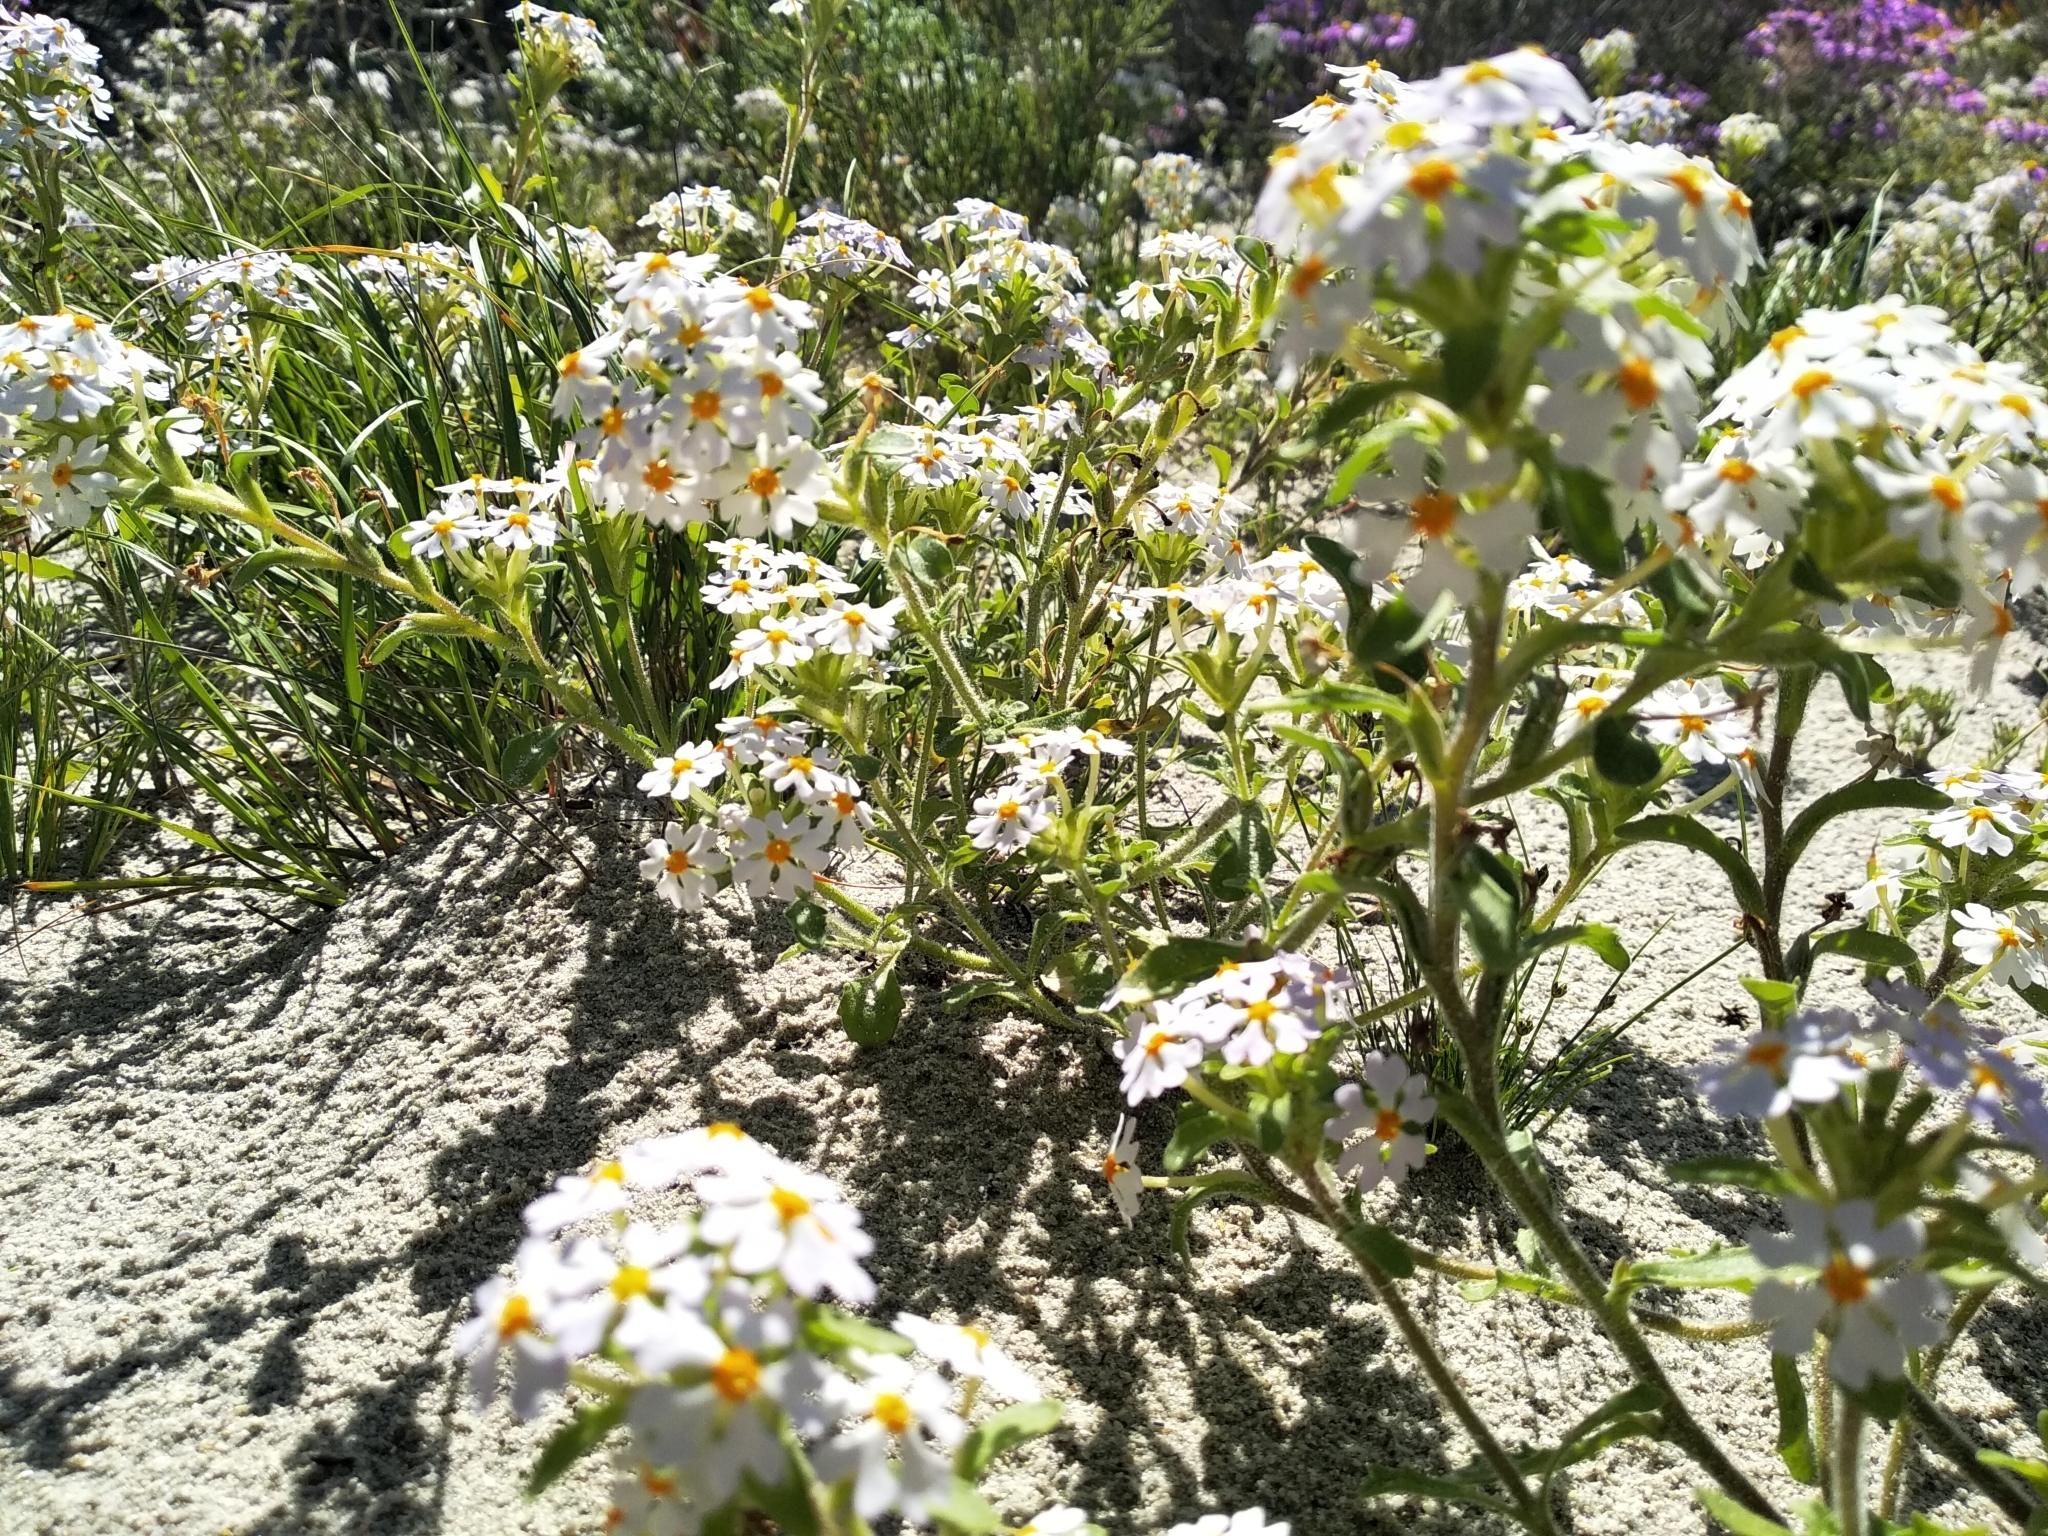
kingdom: Plantae
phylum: Tracheophyta
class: Magnoliopsida
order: Lamiales
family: Scrophulariaceae
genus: Zaluzianskya
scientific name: Zaluzianskya villosa
